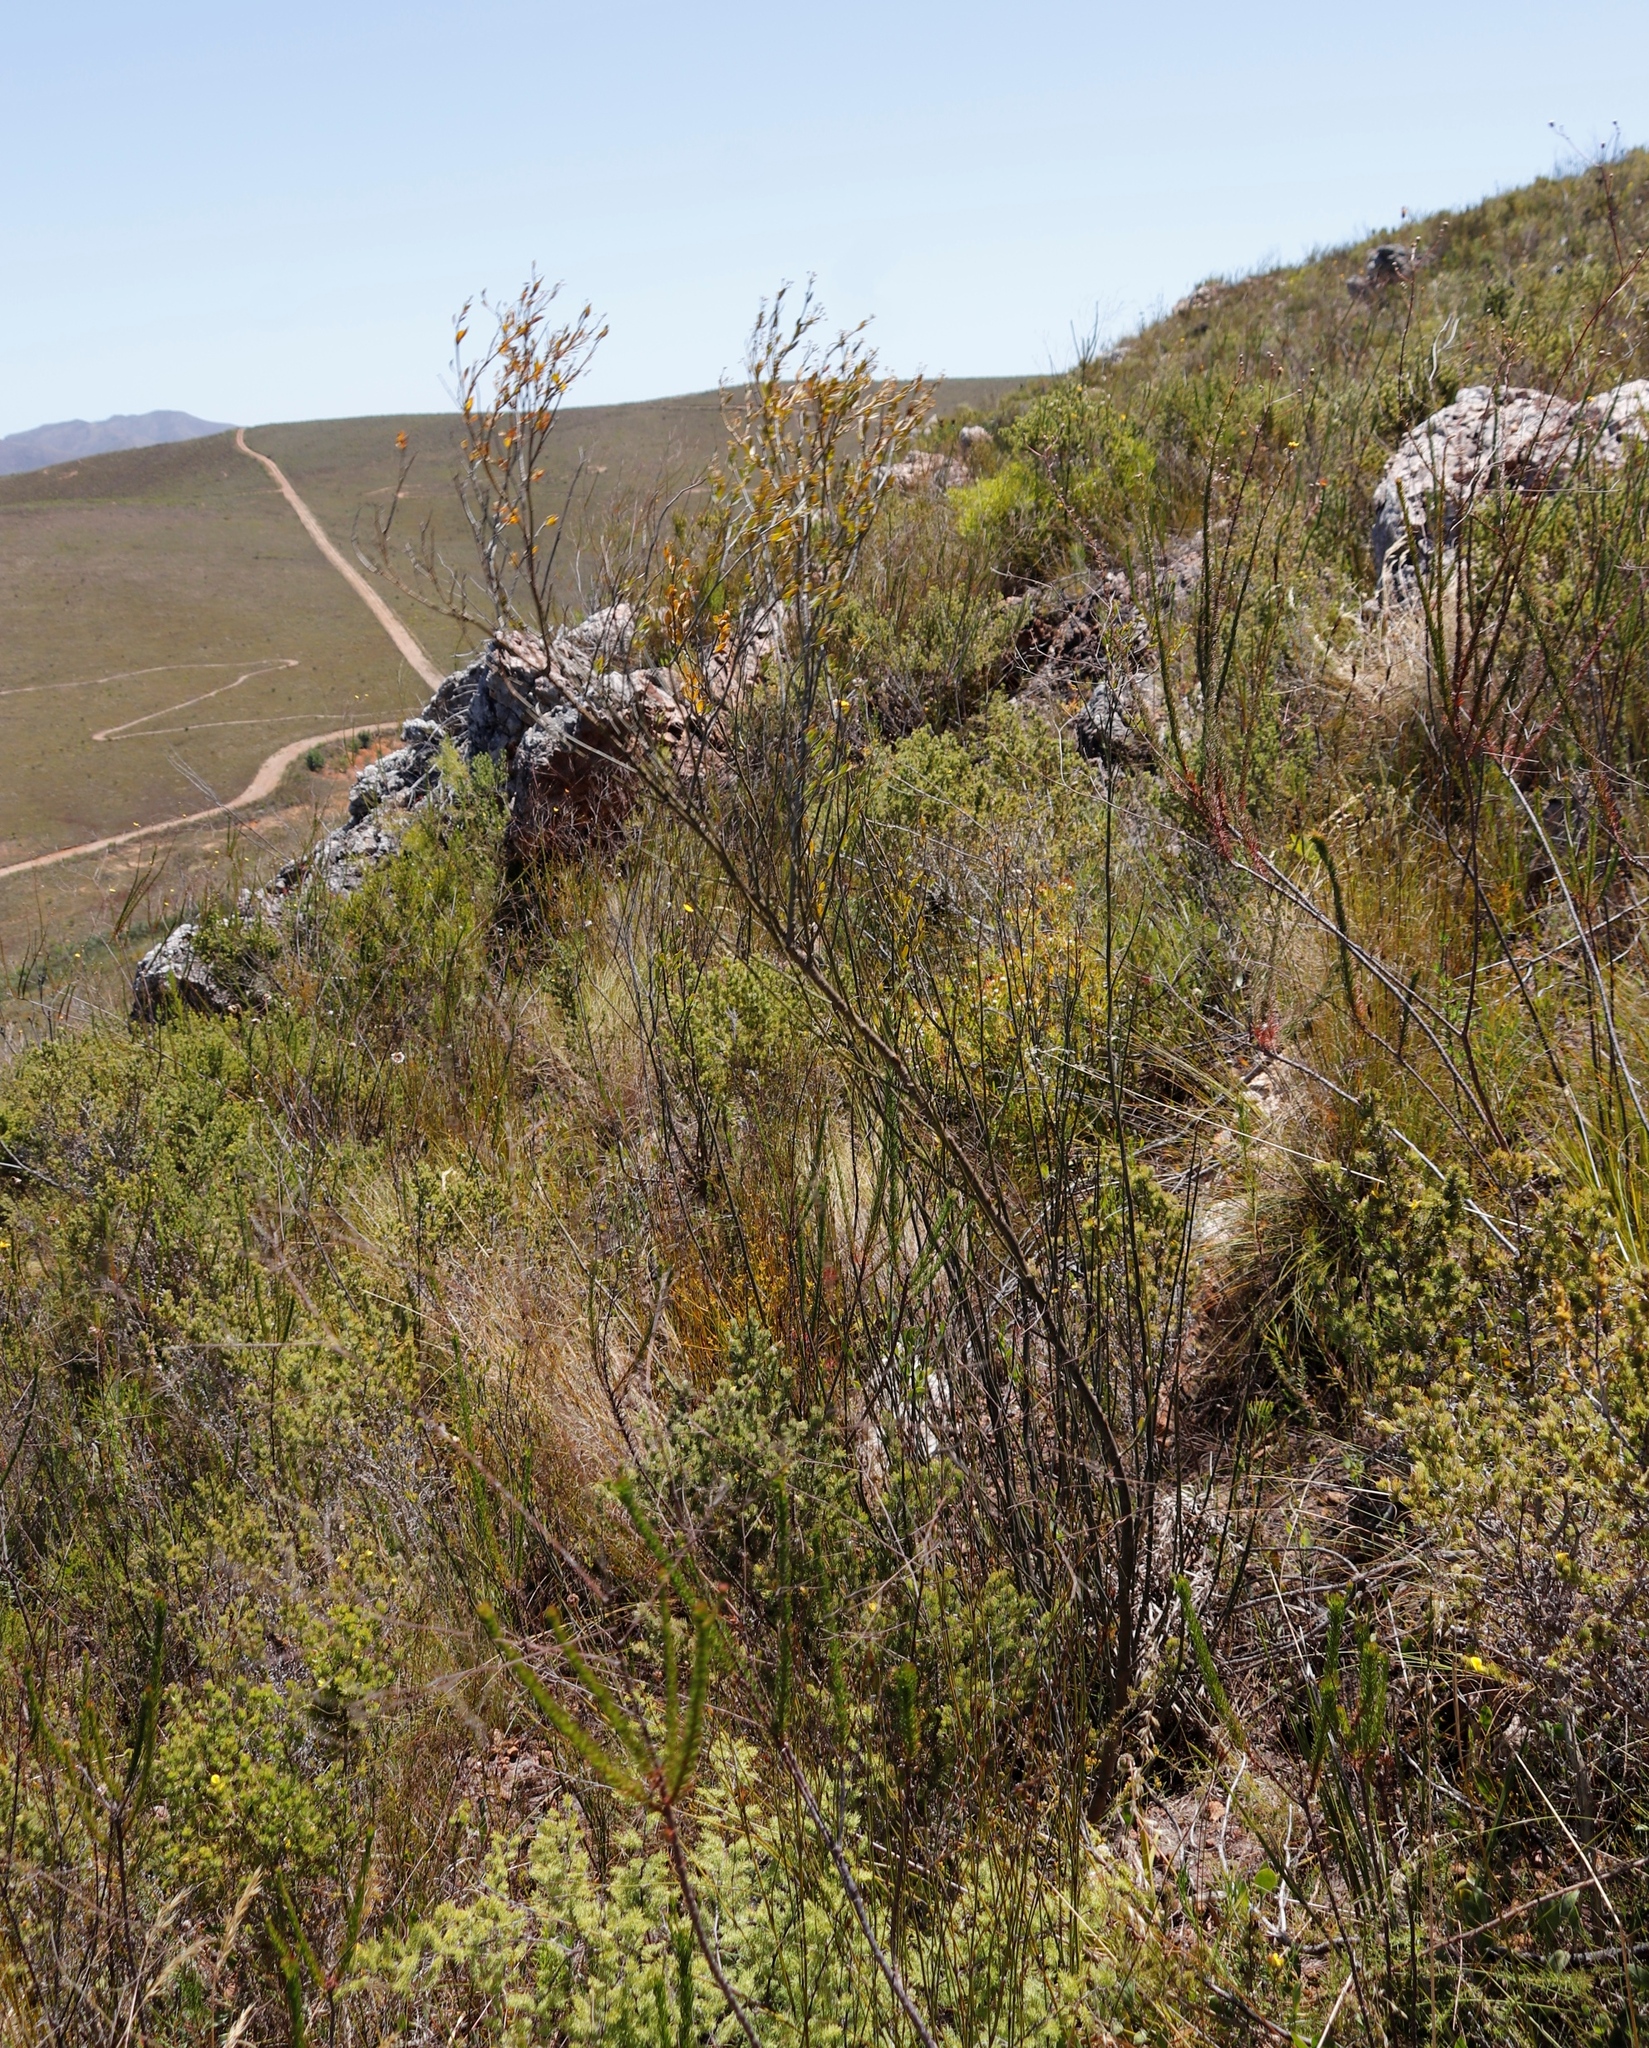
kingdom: Plantae
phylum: Tracheophyta
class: Magnoliopsida
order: Solanales
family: Montiniaceae
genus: Montinia
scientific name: Montinia caryophyllacea
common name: Wild clove-bush
